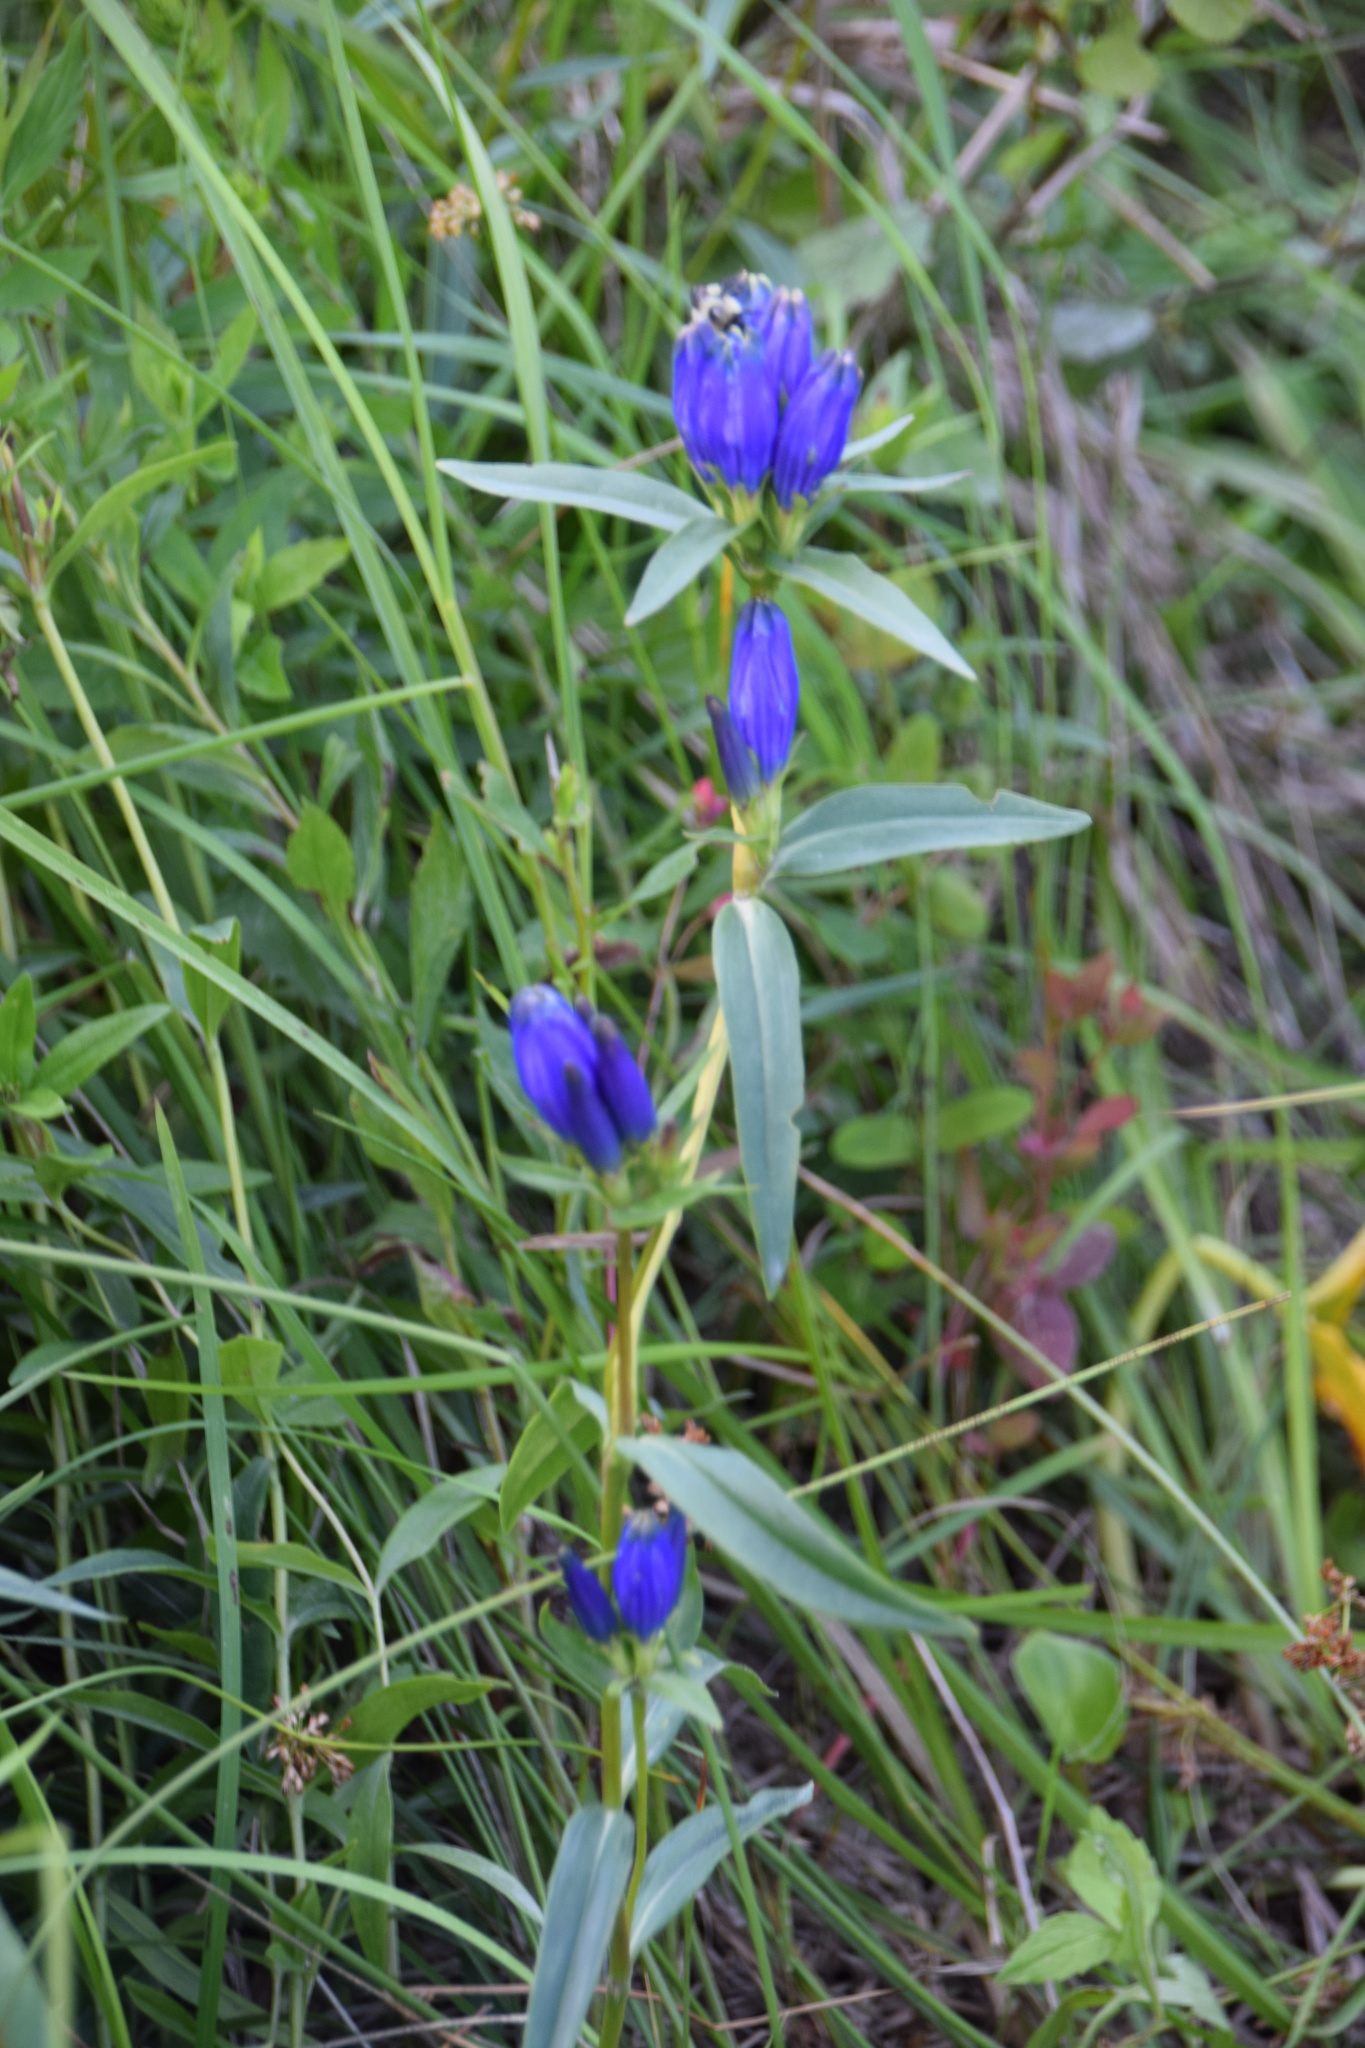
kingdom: Plantae
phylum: Tracheophyta
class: Magnoliopsida
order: Gentianales
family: Gentianaceae
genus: Gentiana
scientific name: Gentiana linearis
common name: Bastard gentian
